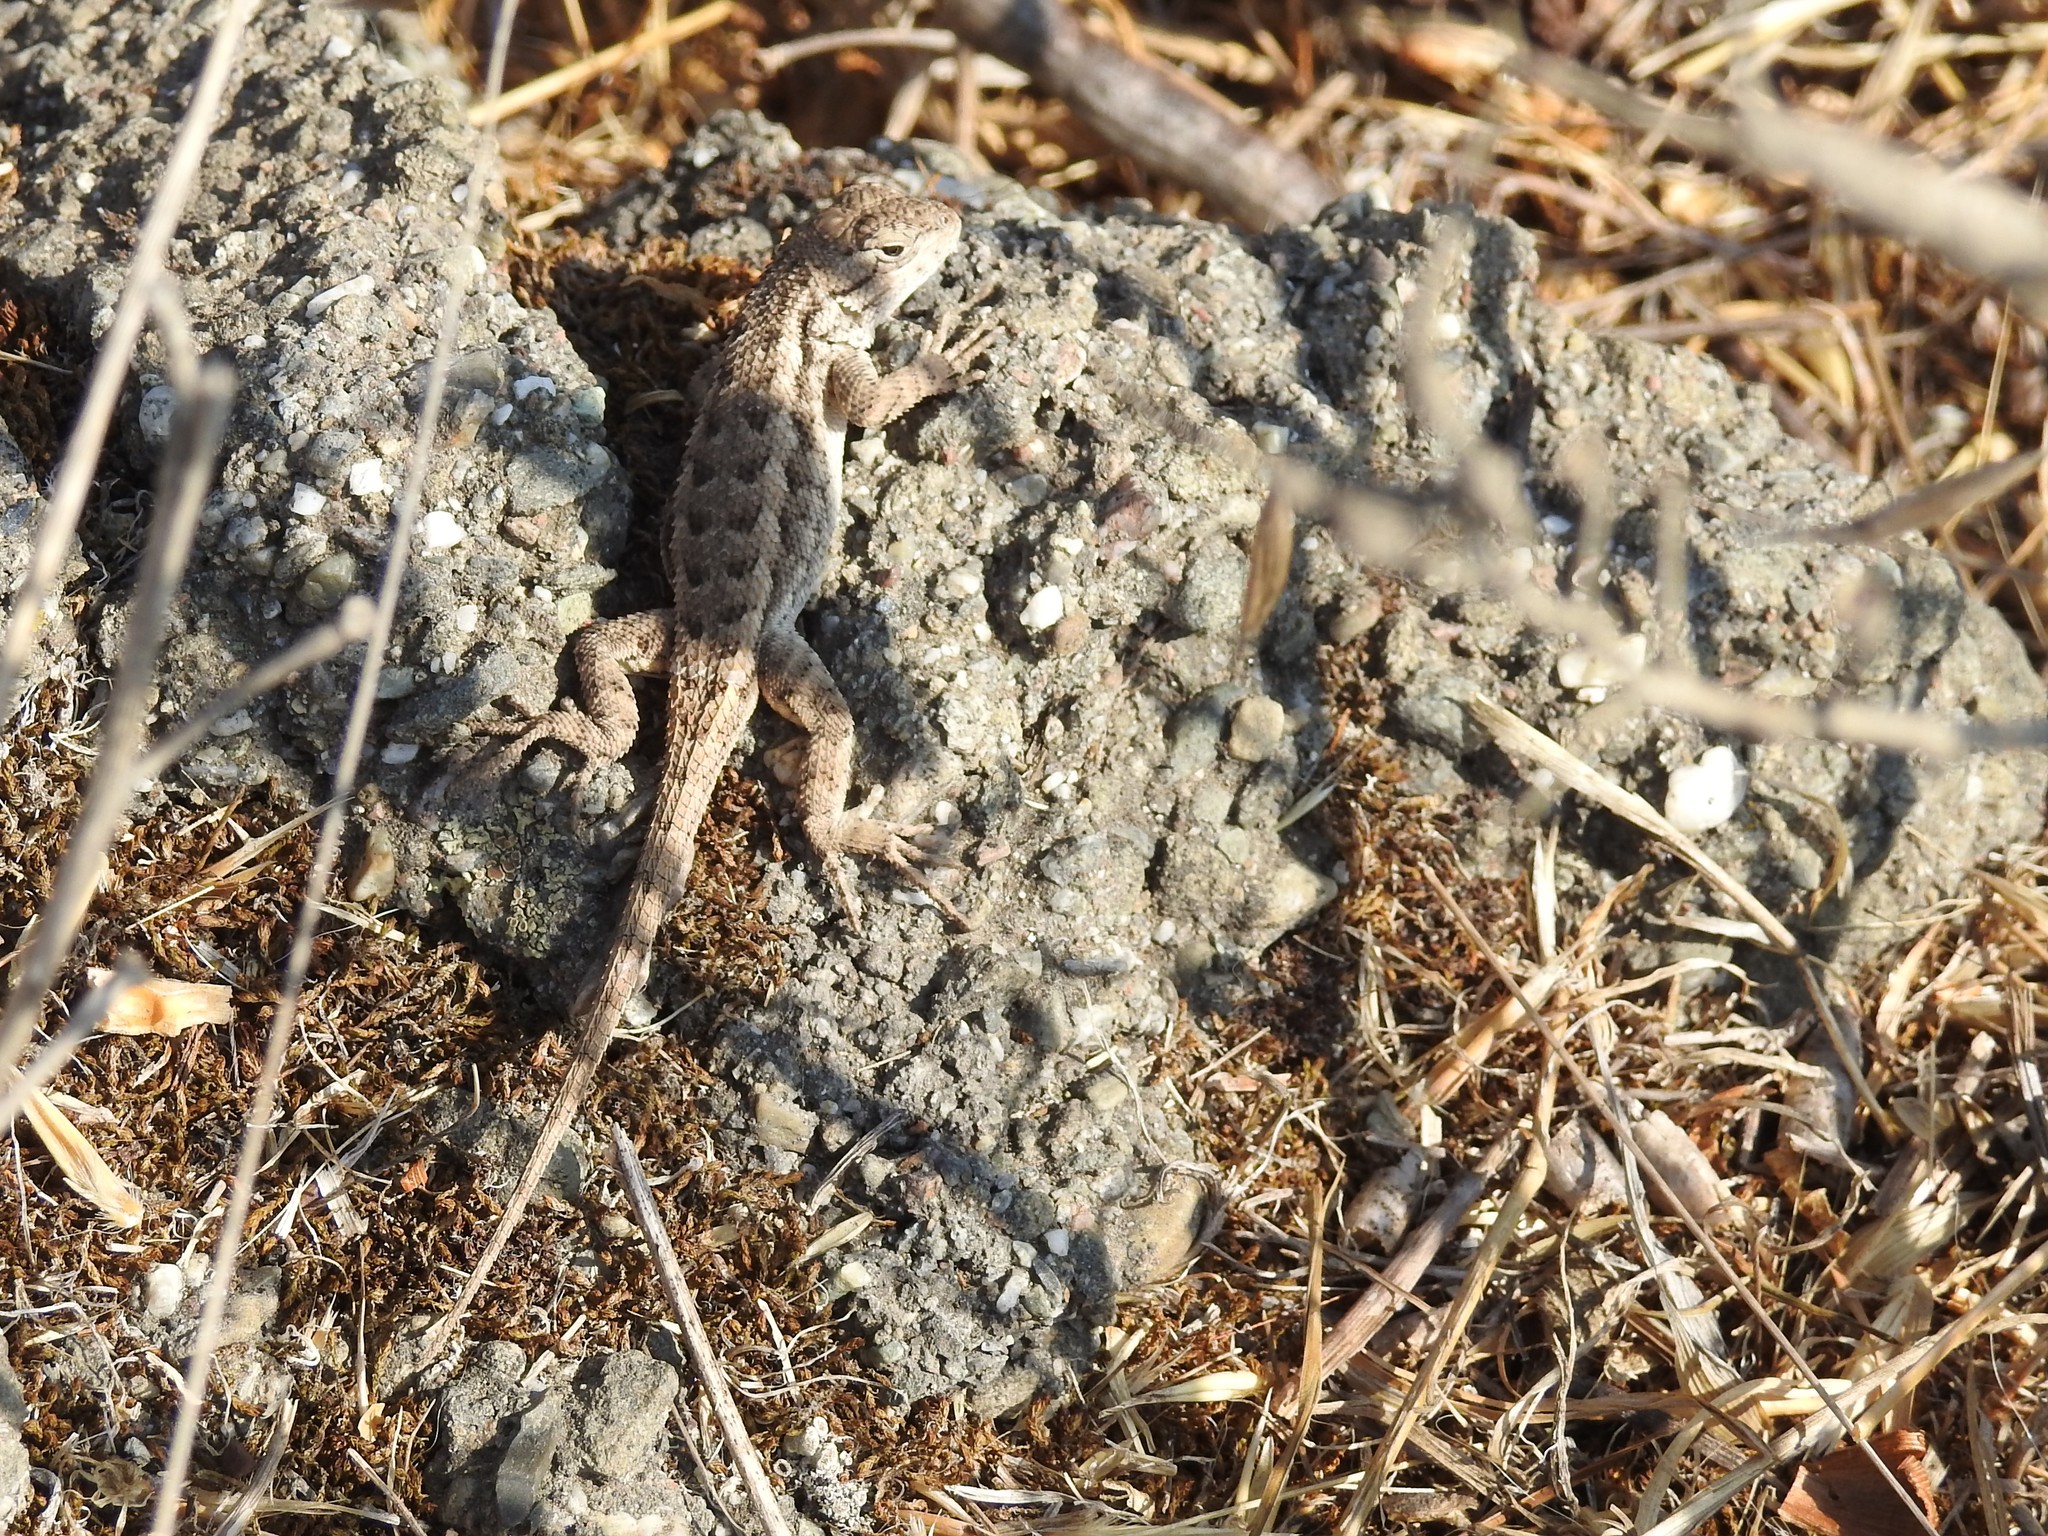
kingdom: Animalia
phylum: Chordata
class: Squamata
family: Phrynosomatidae
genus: Sceloporus
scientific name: Sceloporus occidentalis
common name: Western fence lizard
